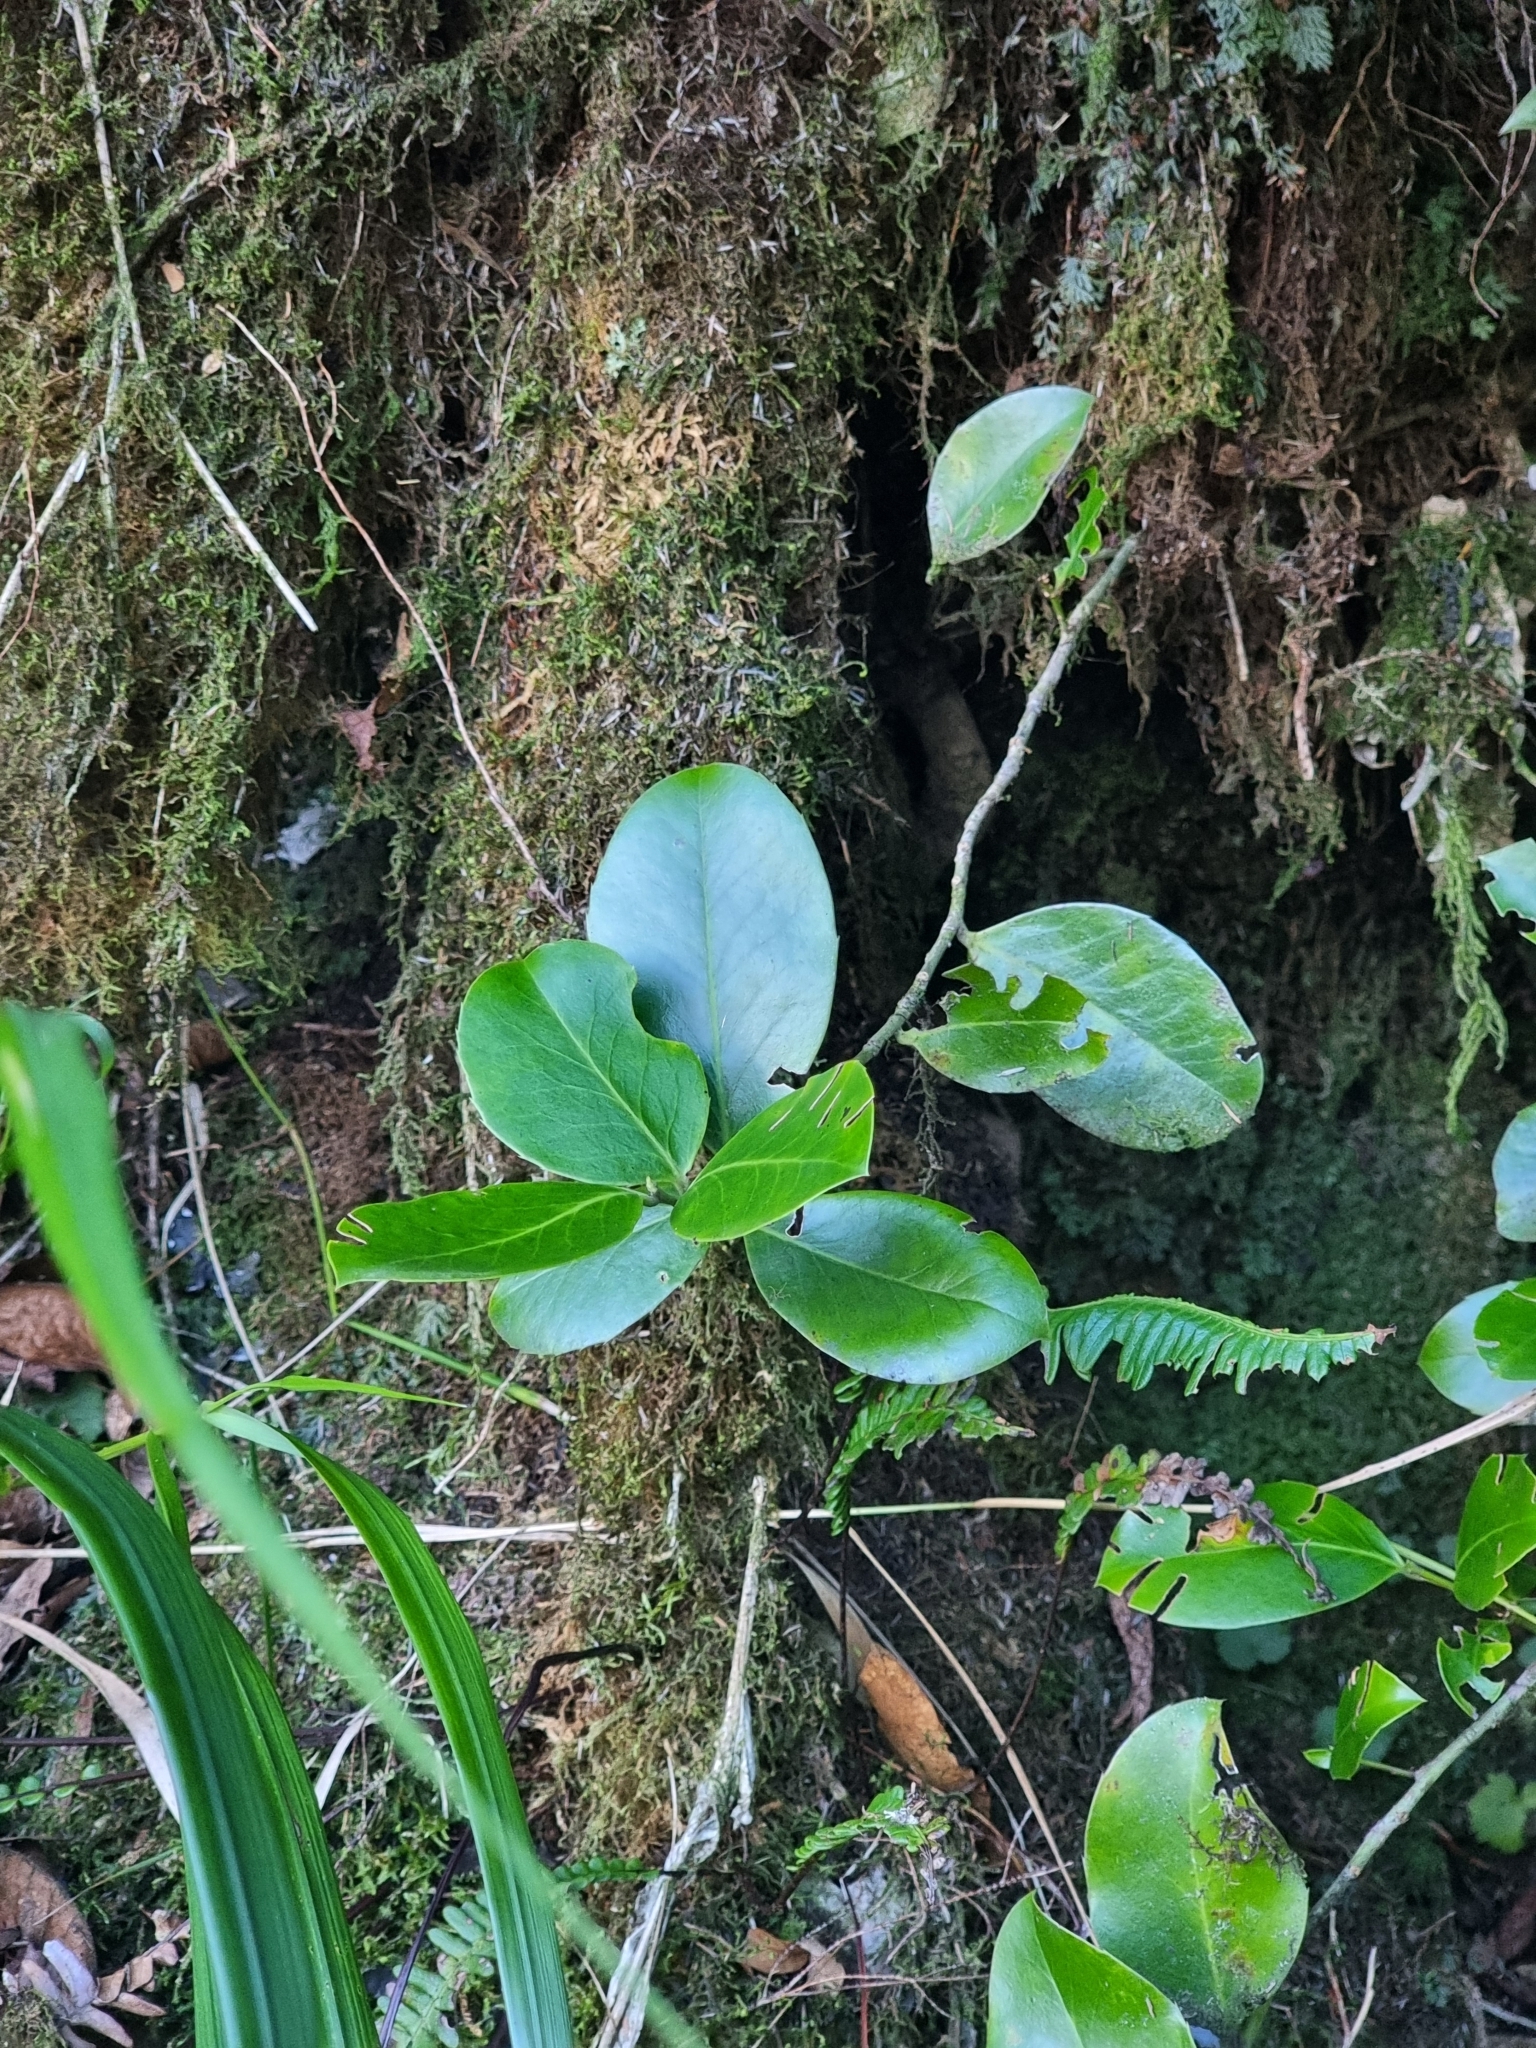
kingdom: Plantae
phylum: Tracheophyta
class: Magnoliopsida
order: Aquifoliales
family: Aquifoliaceae
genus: Ilex
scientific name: Ilex perado
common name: Madeira holly
